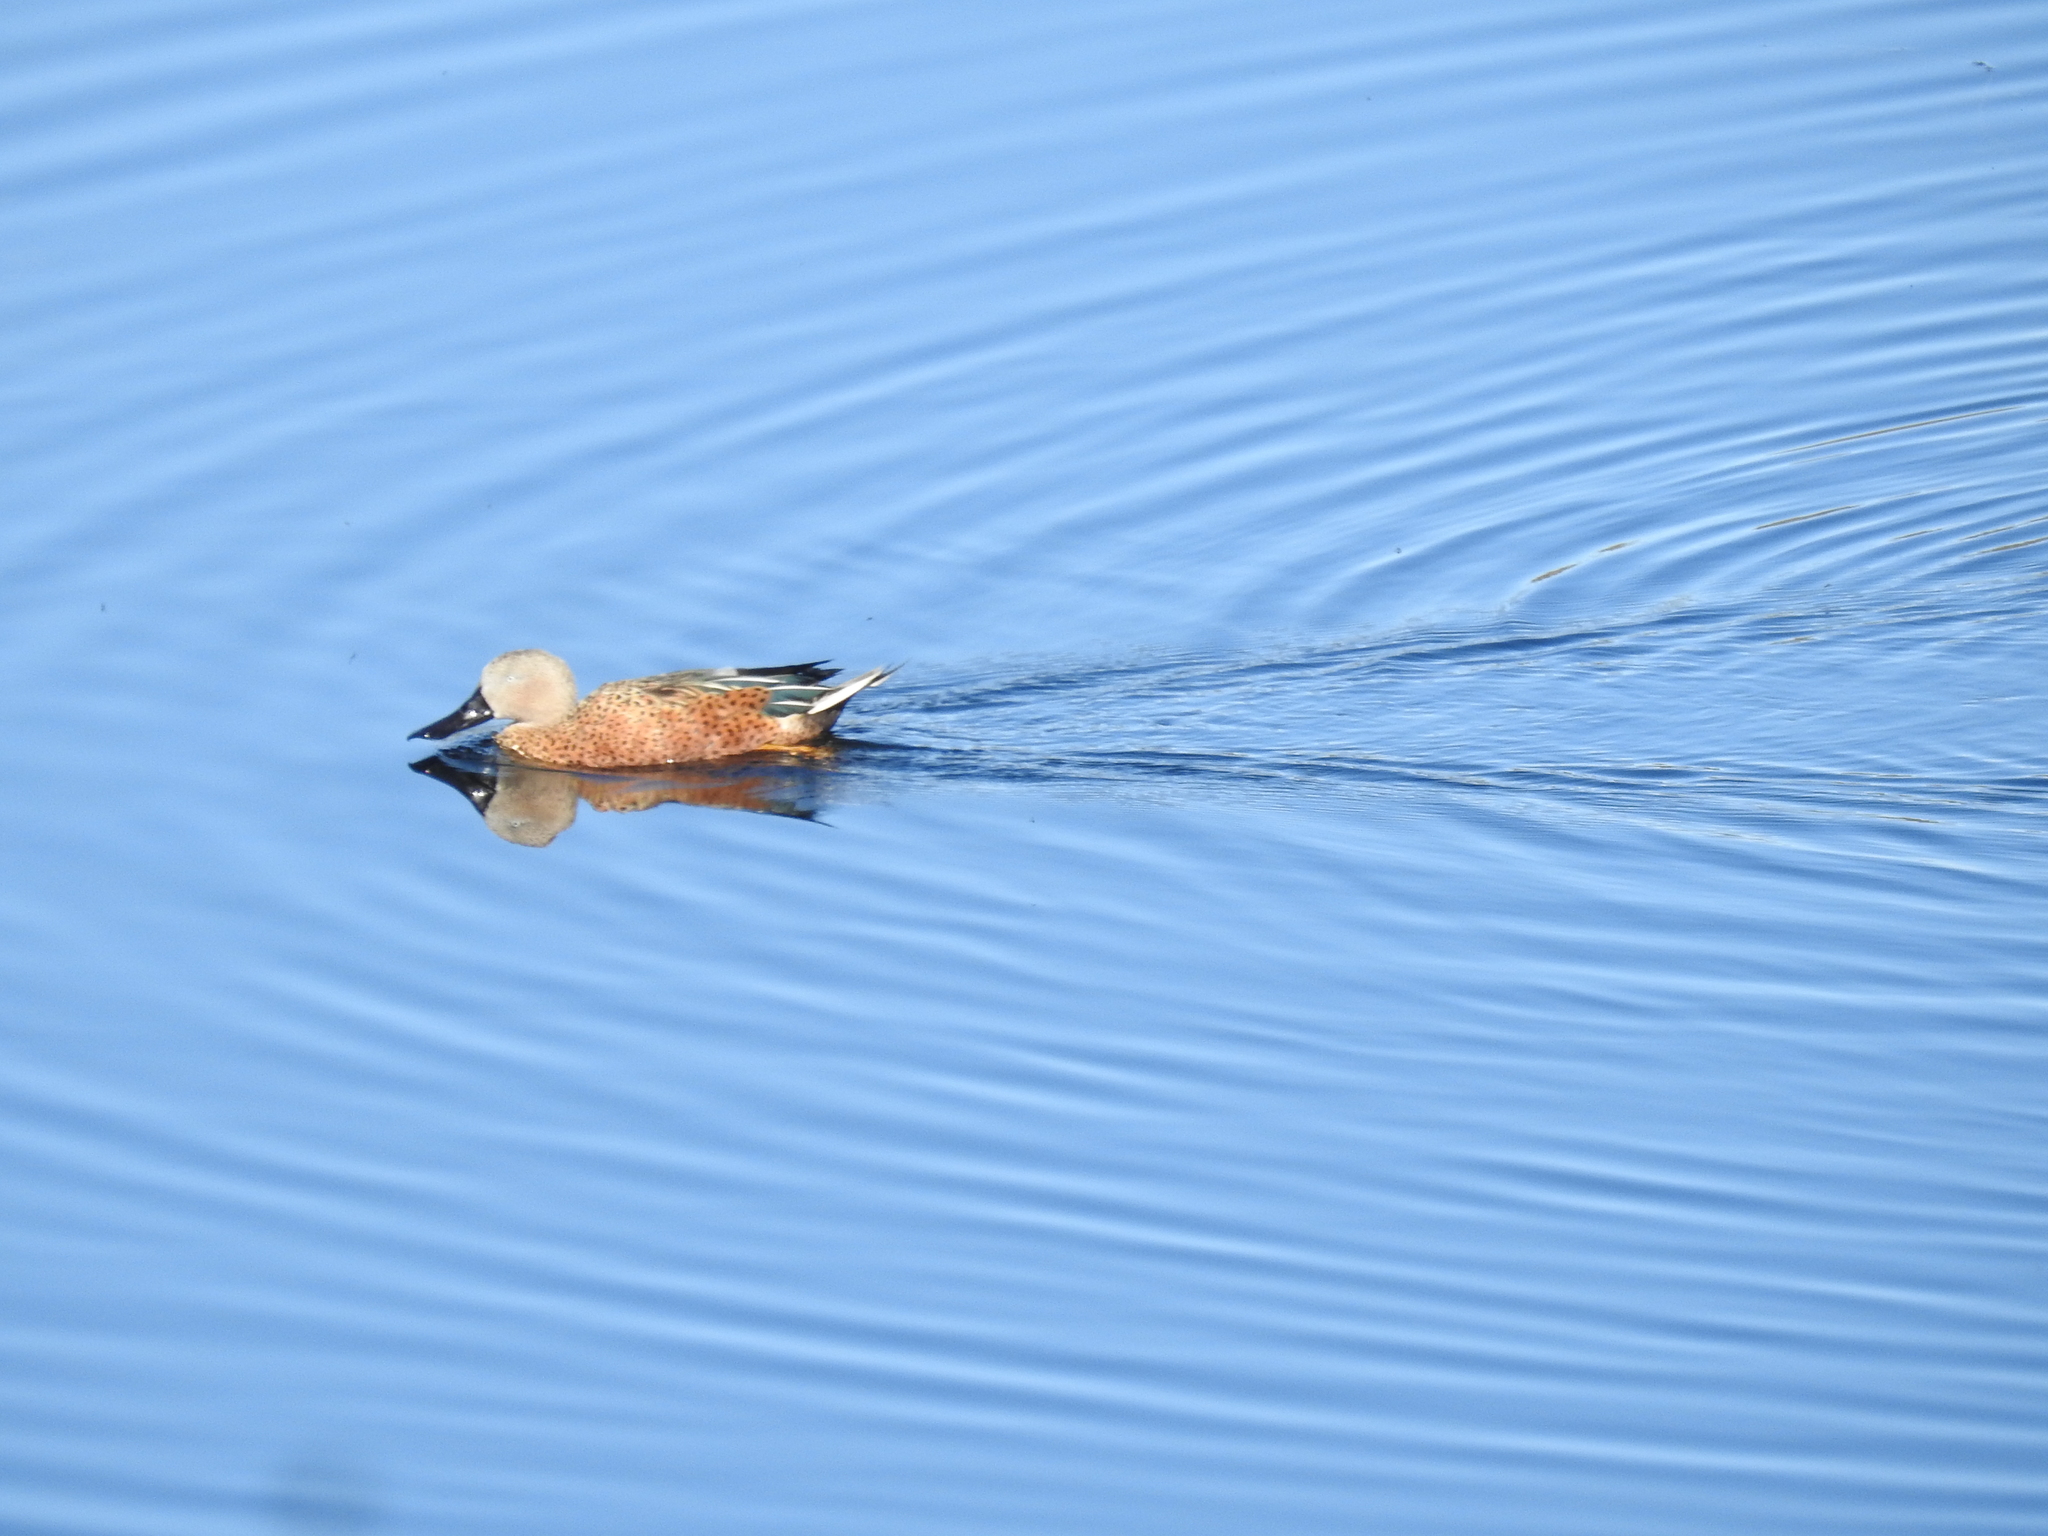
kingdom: Animalia
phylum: Chordata
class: Aves
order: Anseriformes
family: Anatidae
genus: Spatula
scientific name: Spatula platalea
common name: Red shoveler
